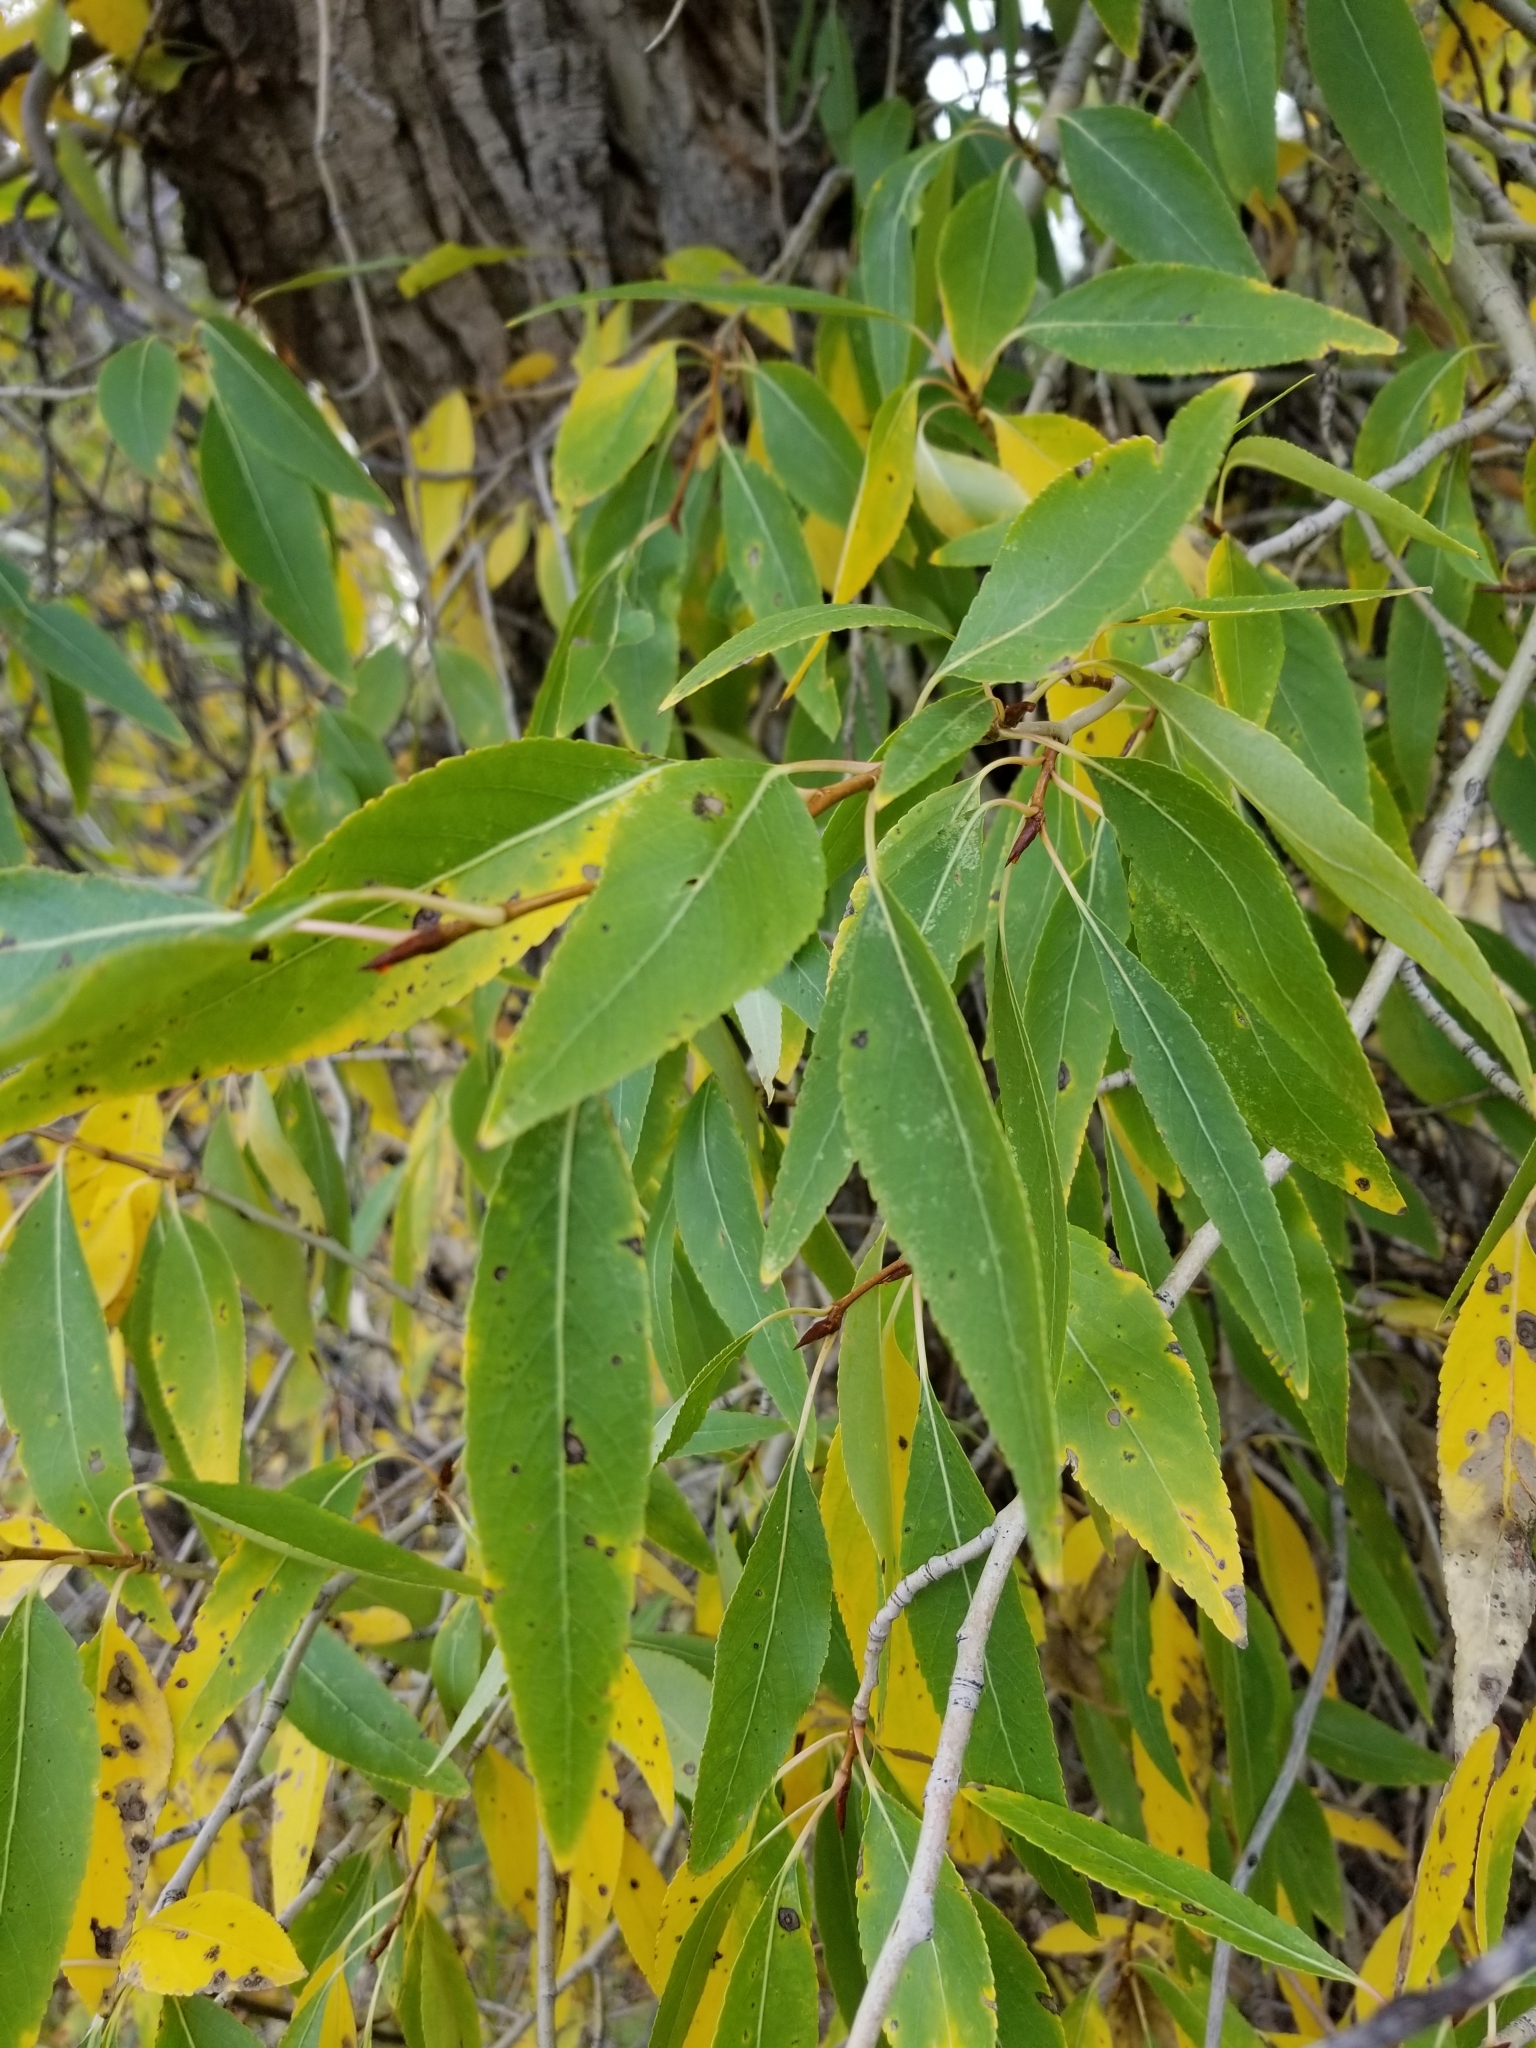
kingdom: Plantae
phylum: Tracheophyta
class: Magnoliopsida
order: Malpighiales
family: Salicaceae
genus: Populus
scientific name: Populus angustifolia
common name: Willow cottonwood
